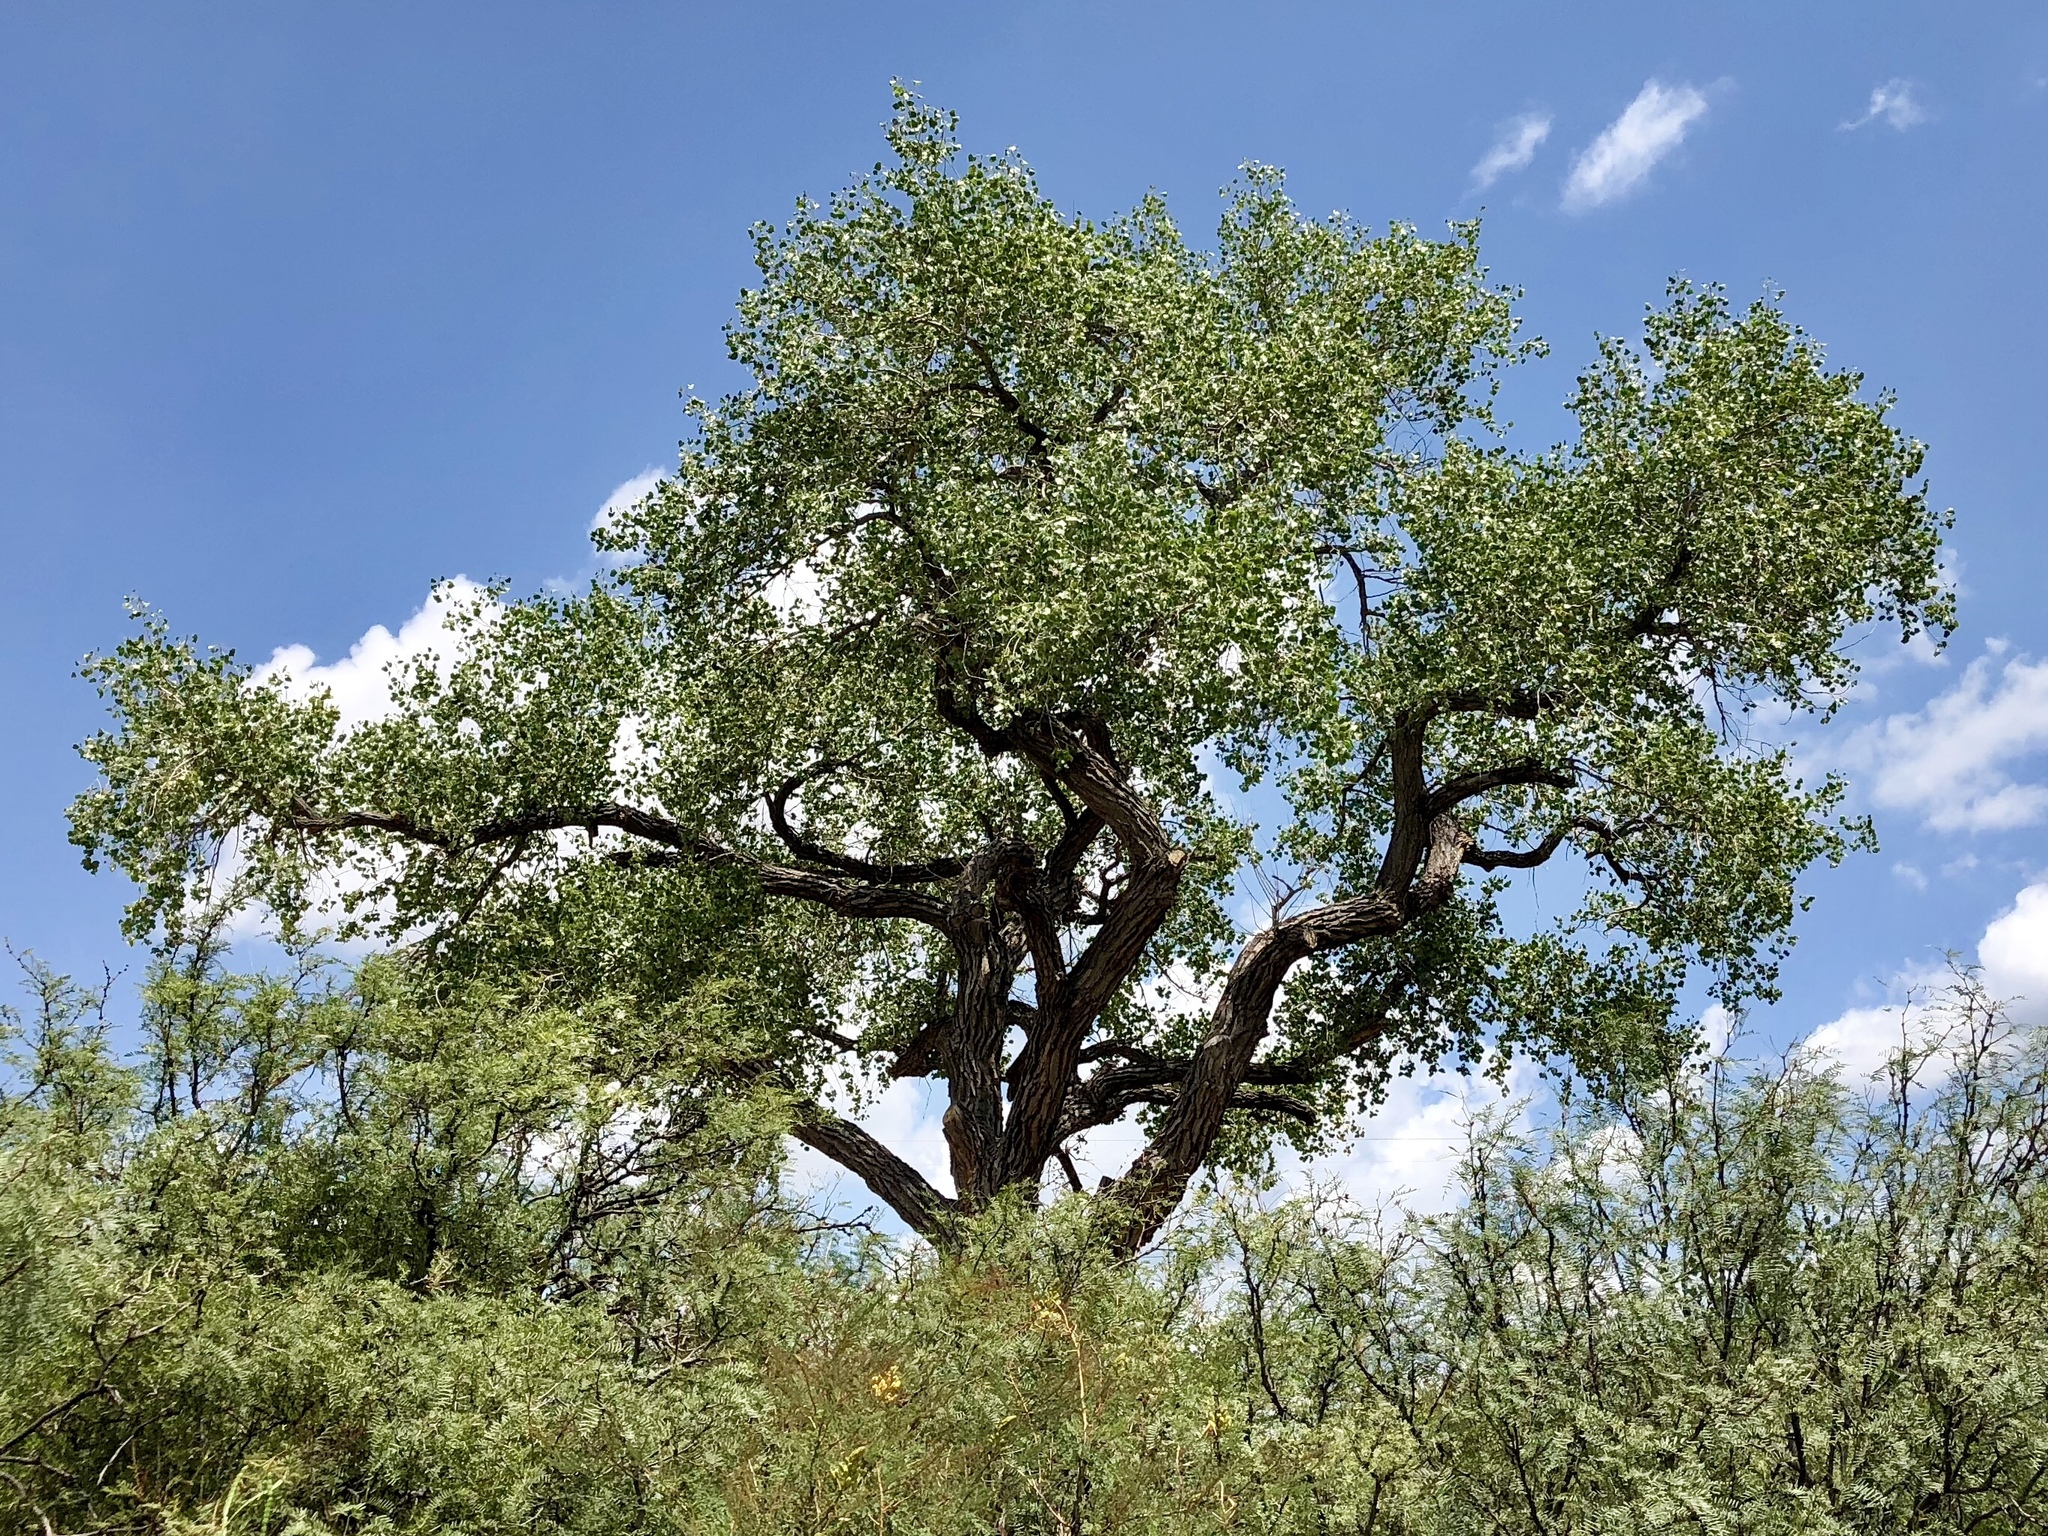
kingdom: Plantae
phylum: Tracheophyta
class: Magnoliopsida
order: Malpighiales
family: Salicaceae
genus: Populus
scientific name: Populus fremontii
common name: Fremont's cottonwood
